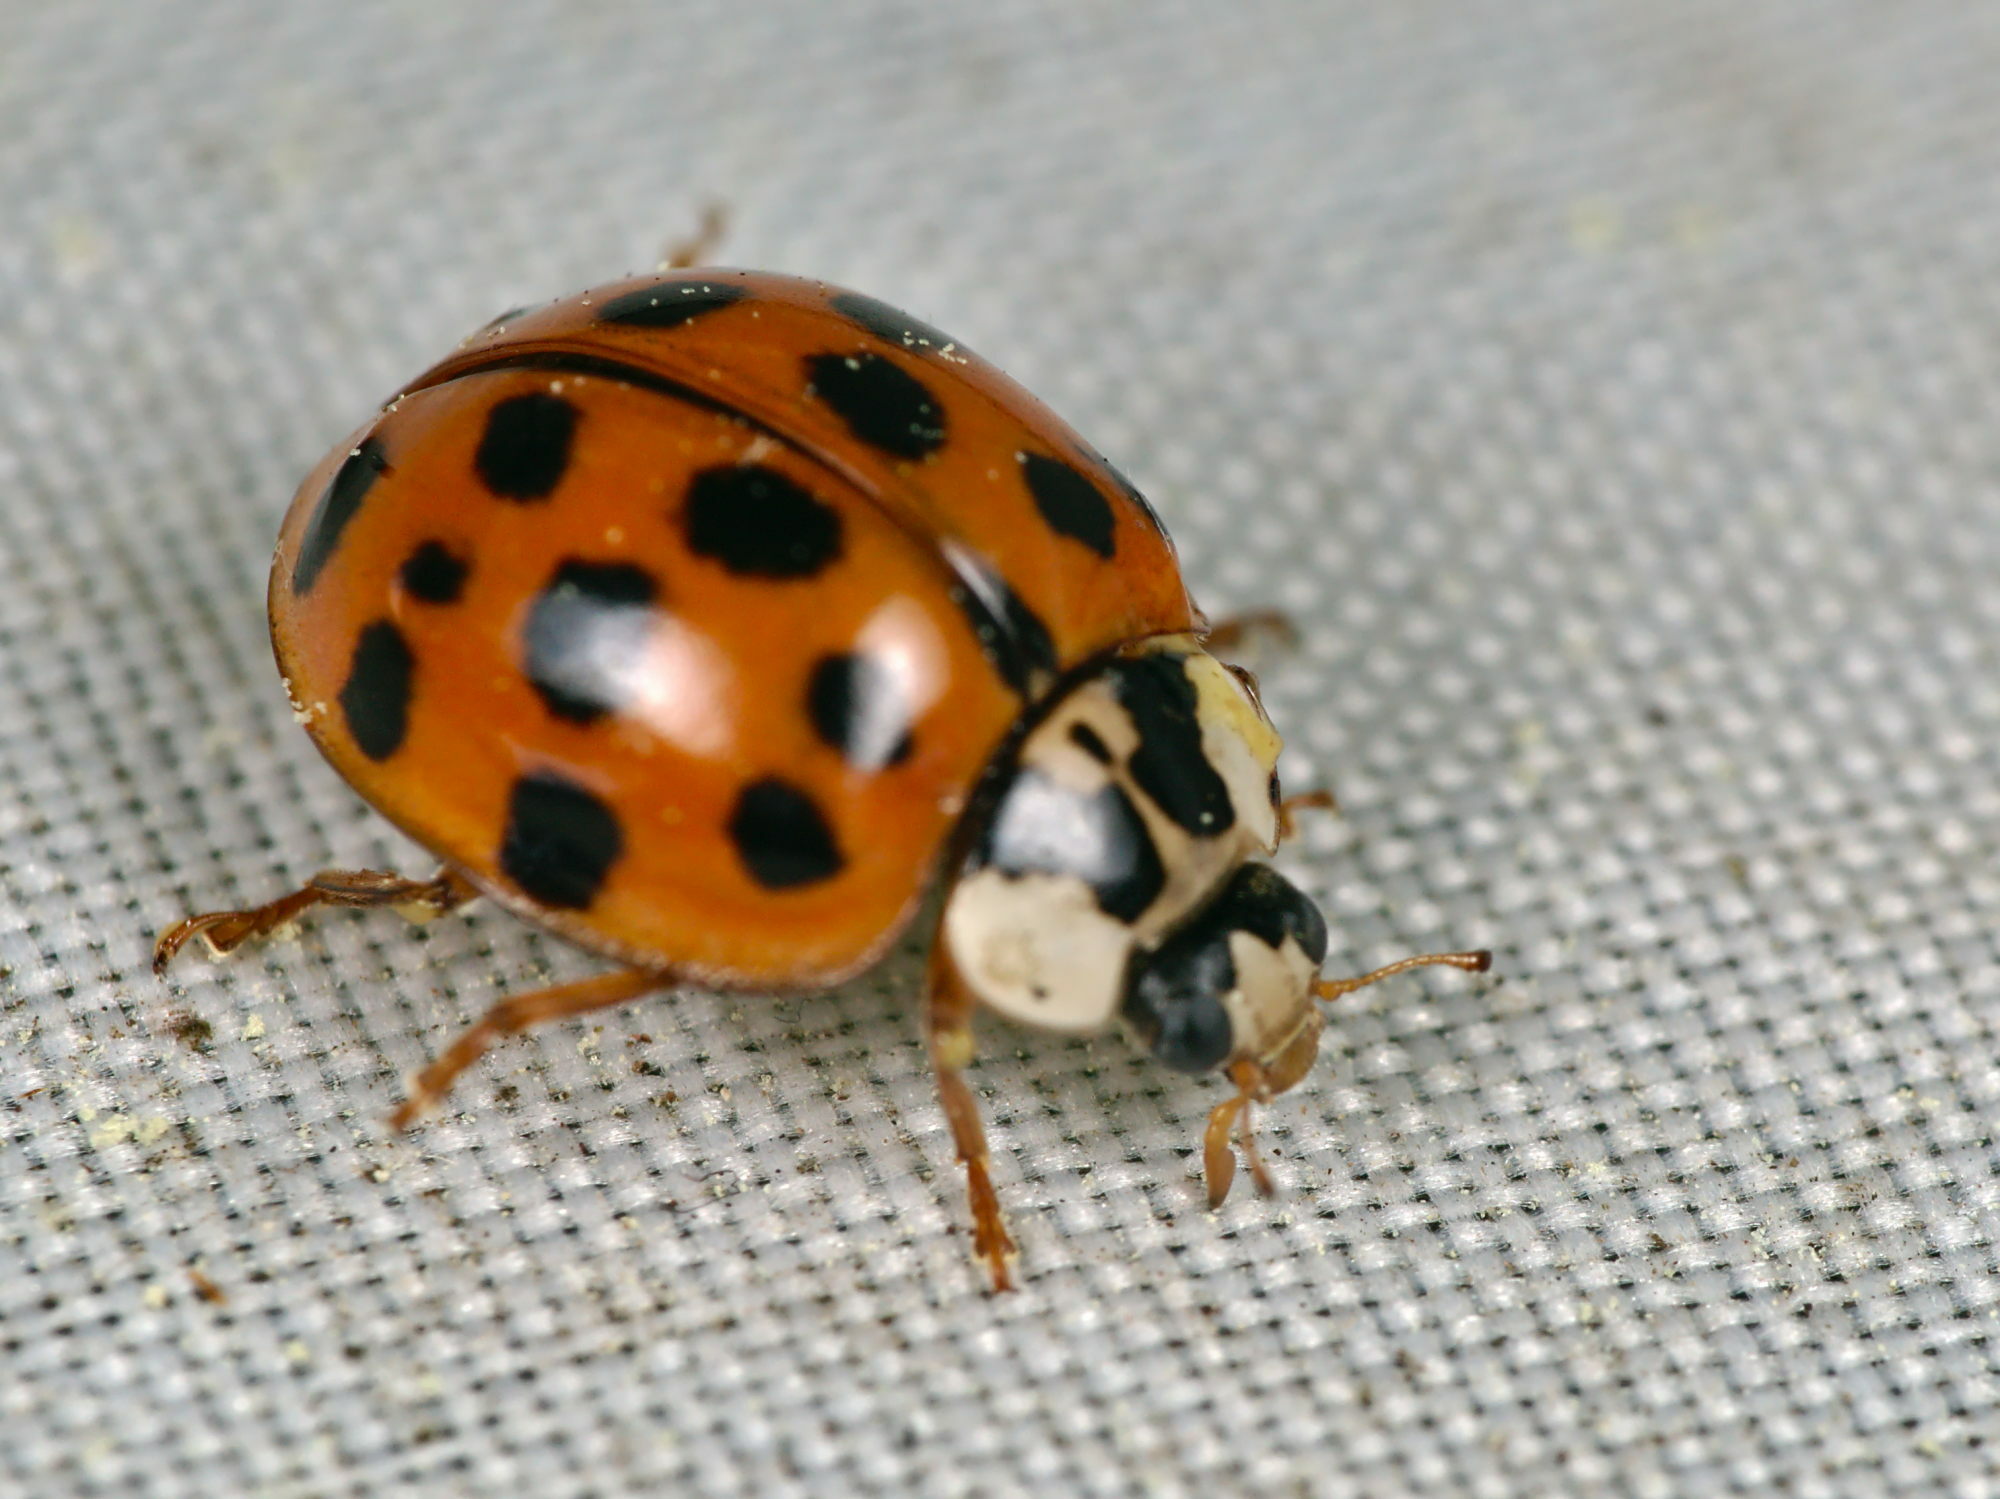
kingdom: Animalia
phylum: Arthropoda
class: Insecta
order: Coleoptera
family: Coccinellidae
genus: Harmonia
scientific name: Harmonia axyridis
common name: Harlequin ladybird
